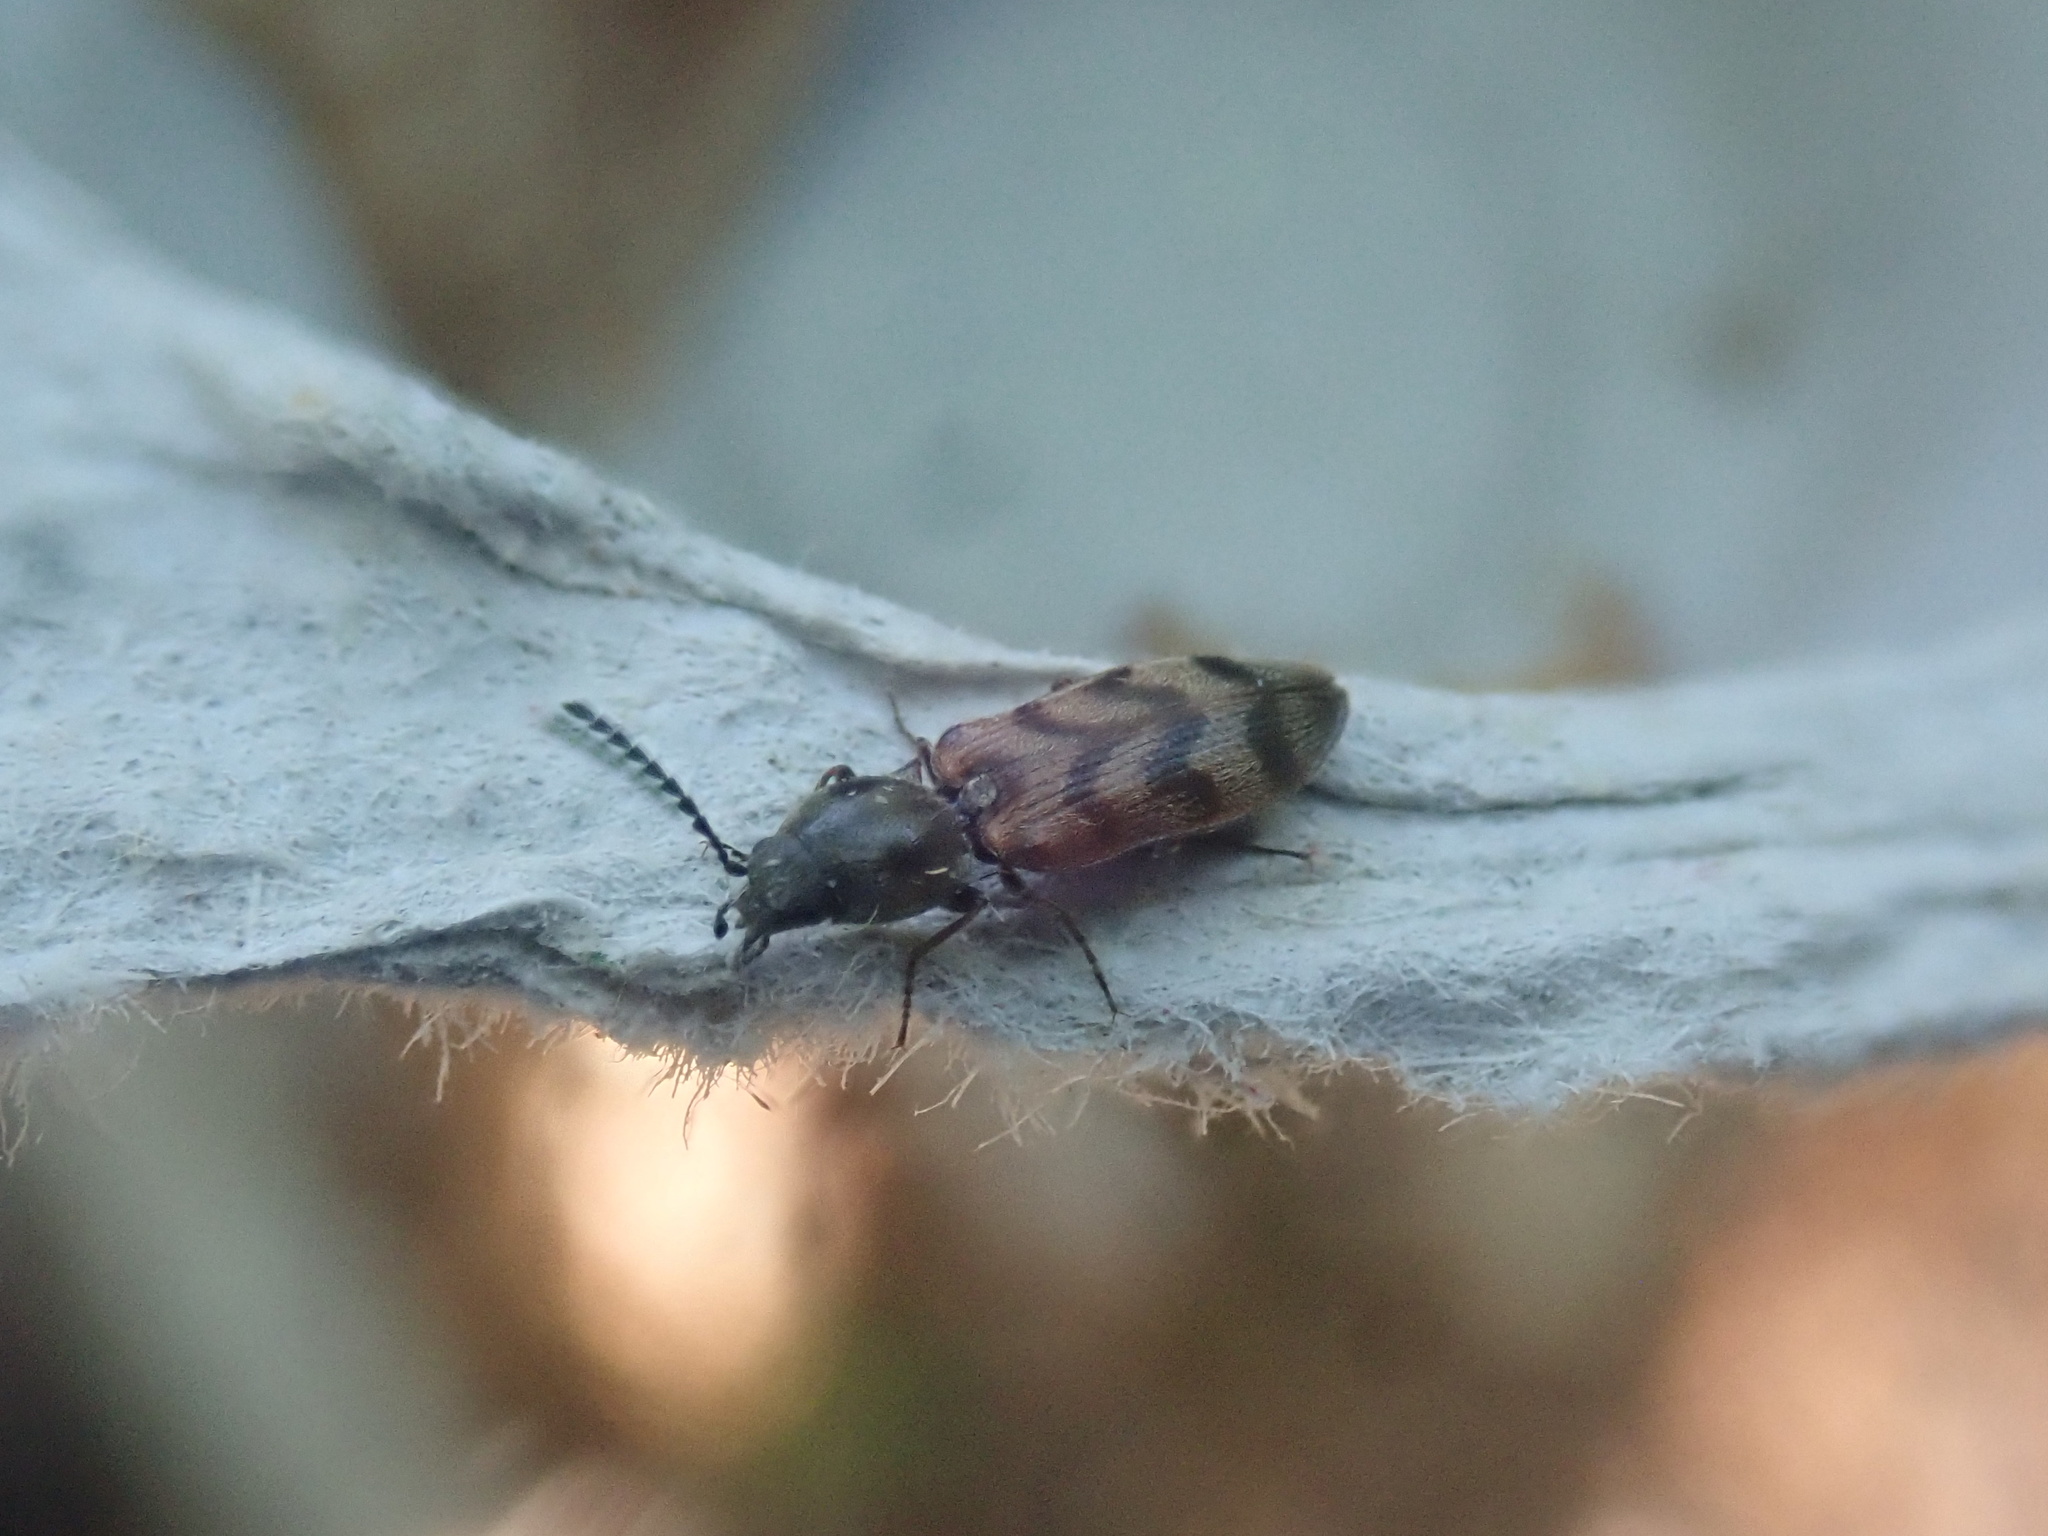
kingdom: Animalia
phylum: Arthropoda
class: Insecta
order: Coleoptera
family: Elateridae
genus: Pseudanostirus
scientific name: Pseudanostirus triundulatus
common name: Three-spotted click beetle
